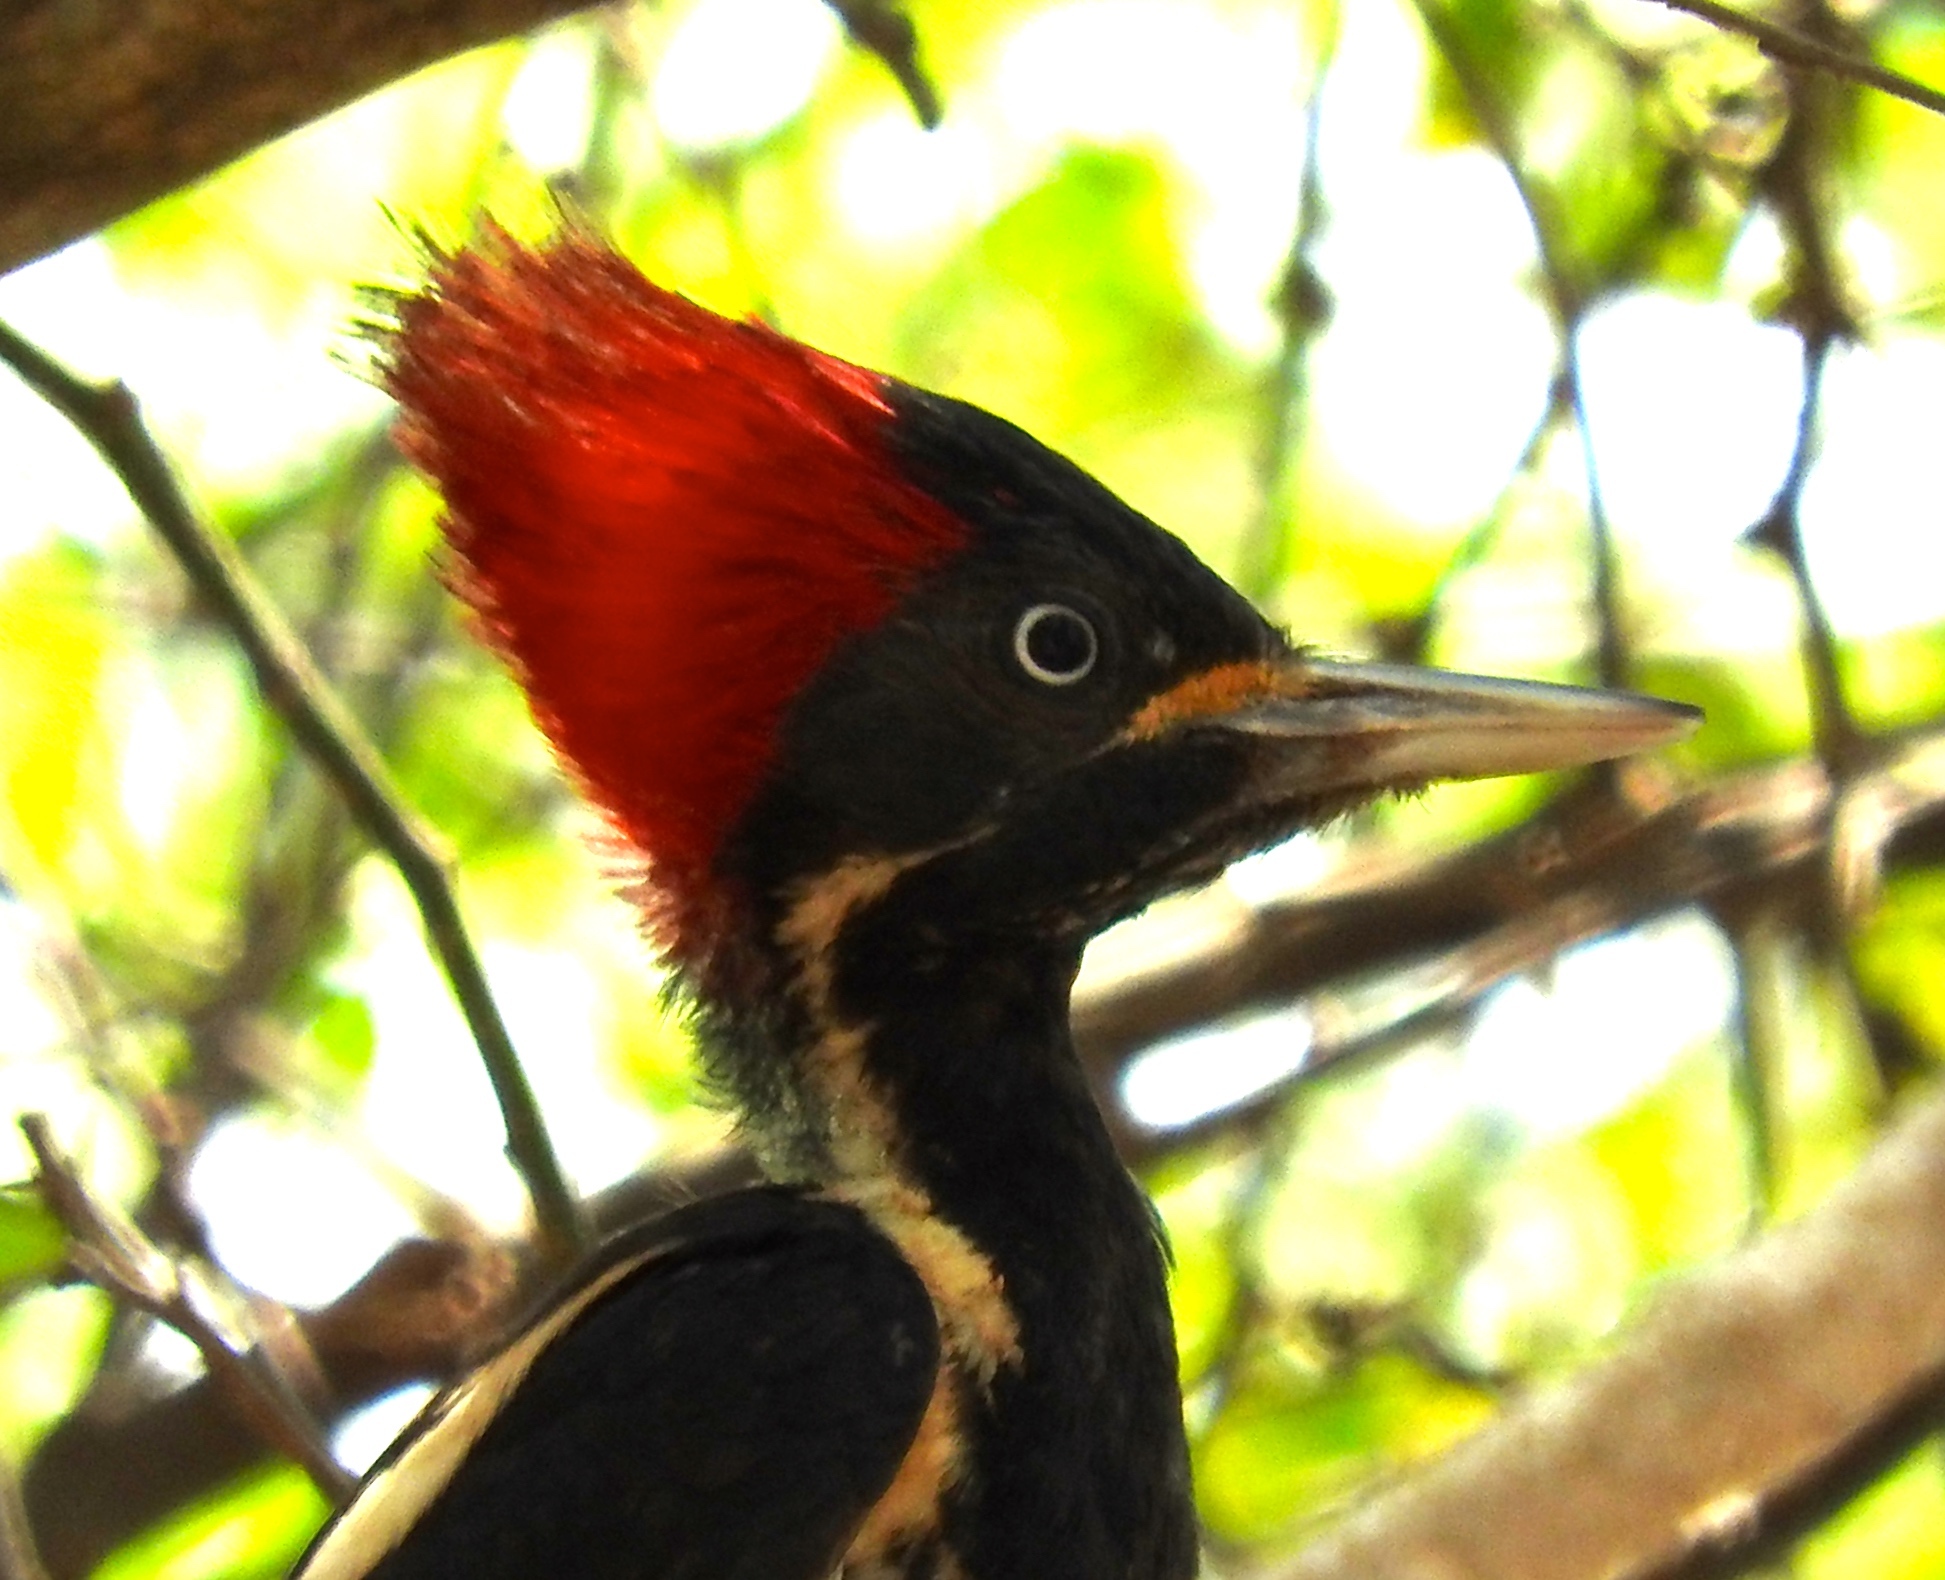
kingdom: Animalia
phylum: Chordata
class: Aves
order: Piciformes
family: Picidae
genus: Dryocopus
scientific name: Dryocopus lineatus
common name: Lineated woodpecker
